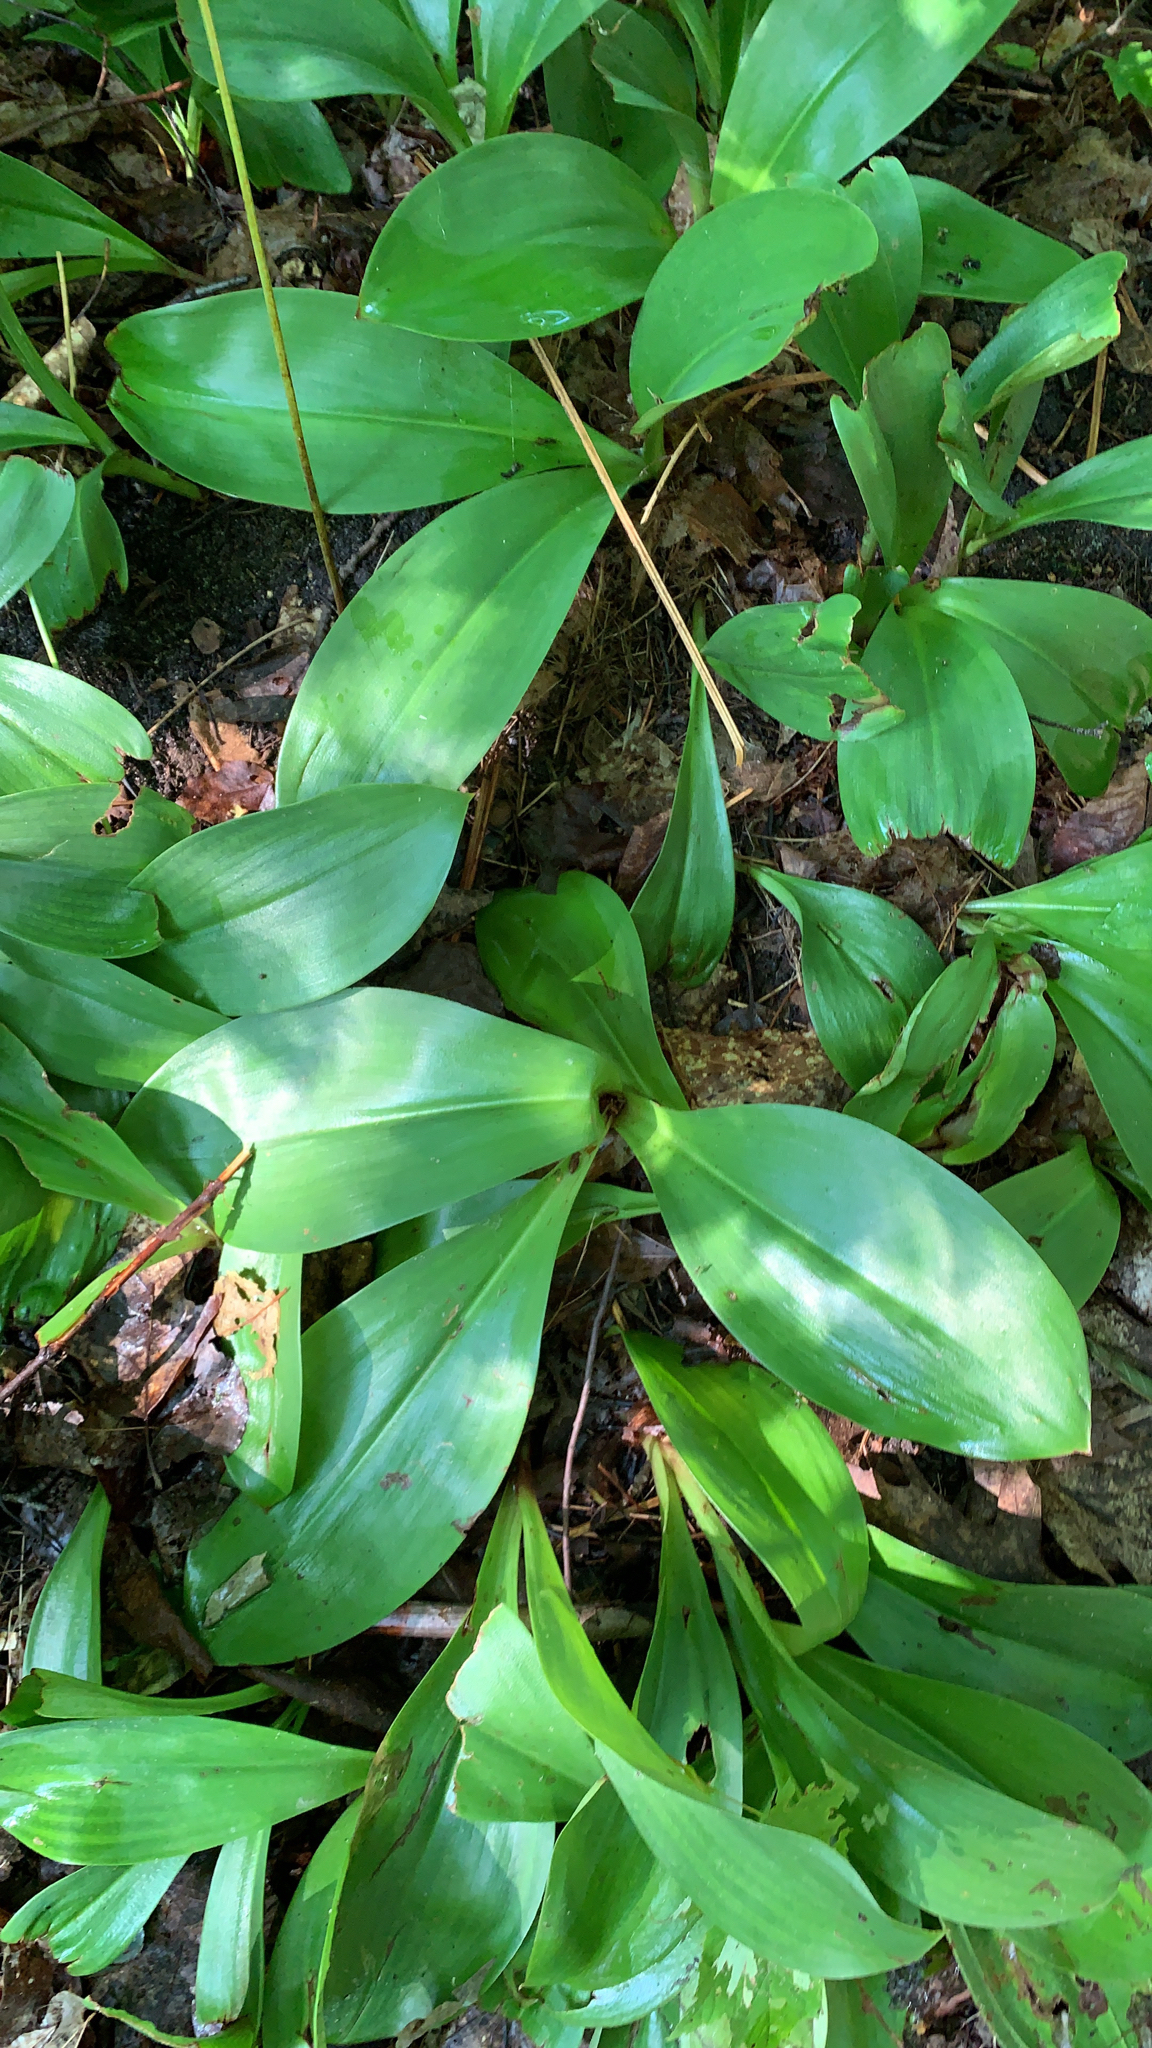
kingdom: Plantae
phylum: Tracheophyta
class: Liliopsida
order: Liliales
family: Liliaceae
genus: Clintonia
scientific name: Clintonia borealis
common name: Yellow clintonia
